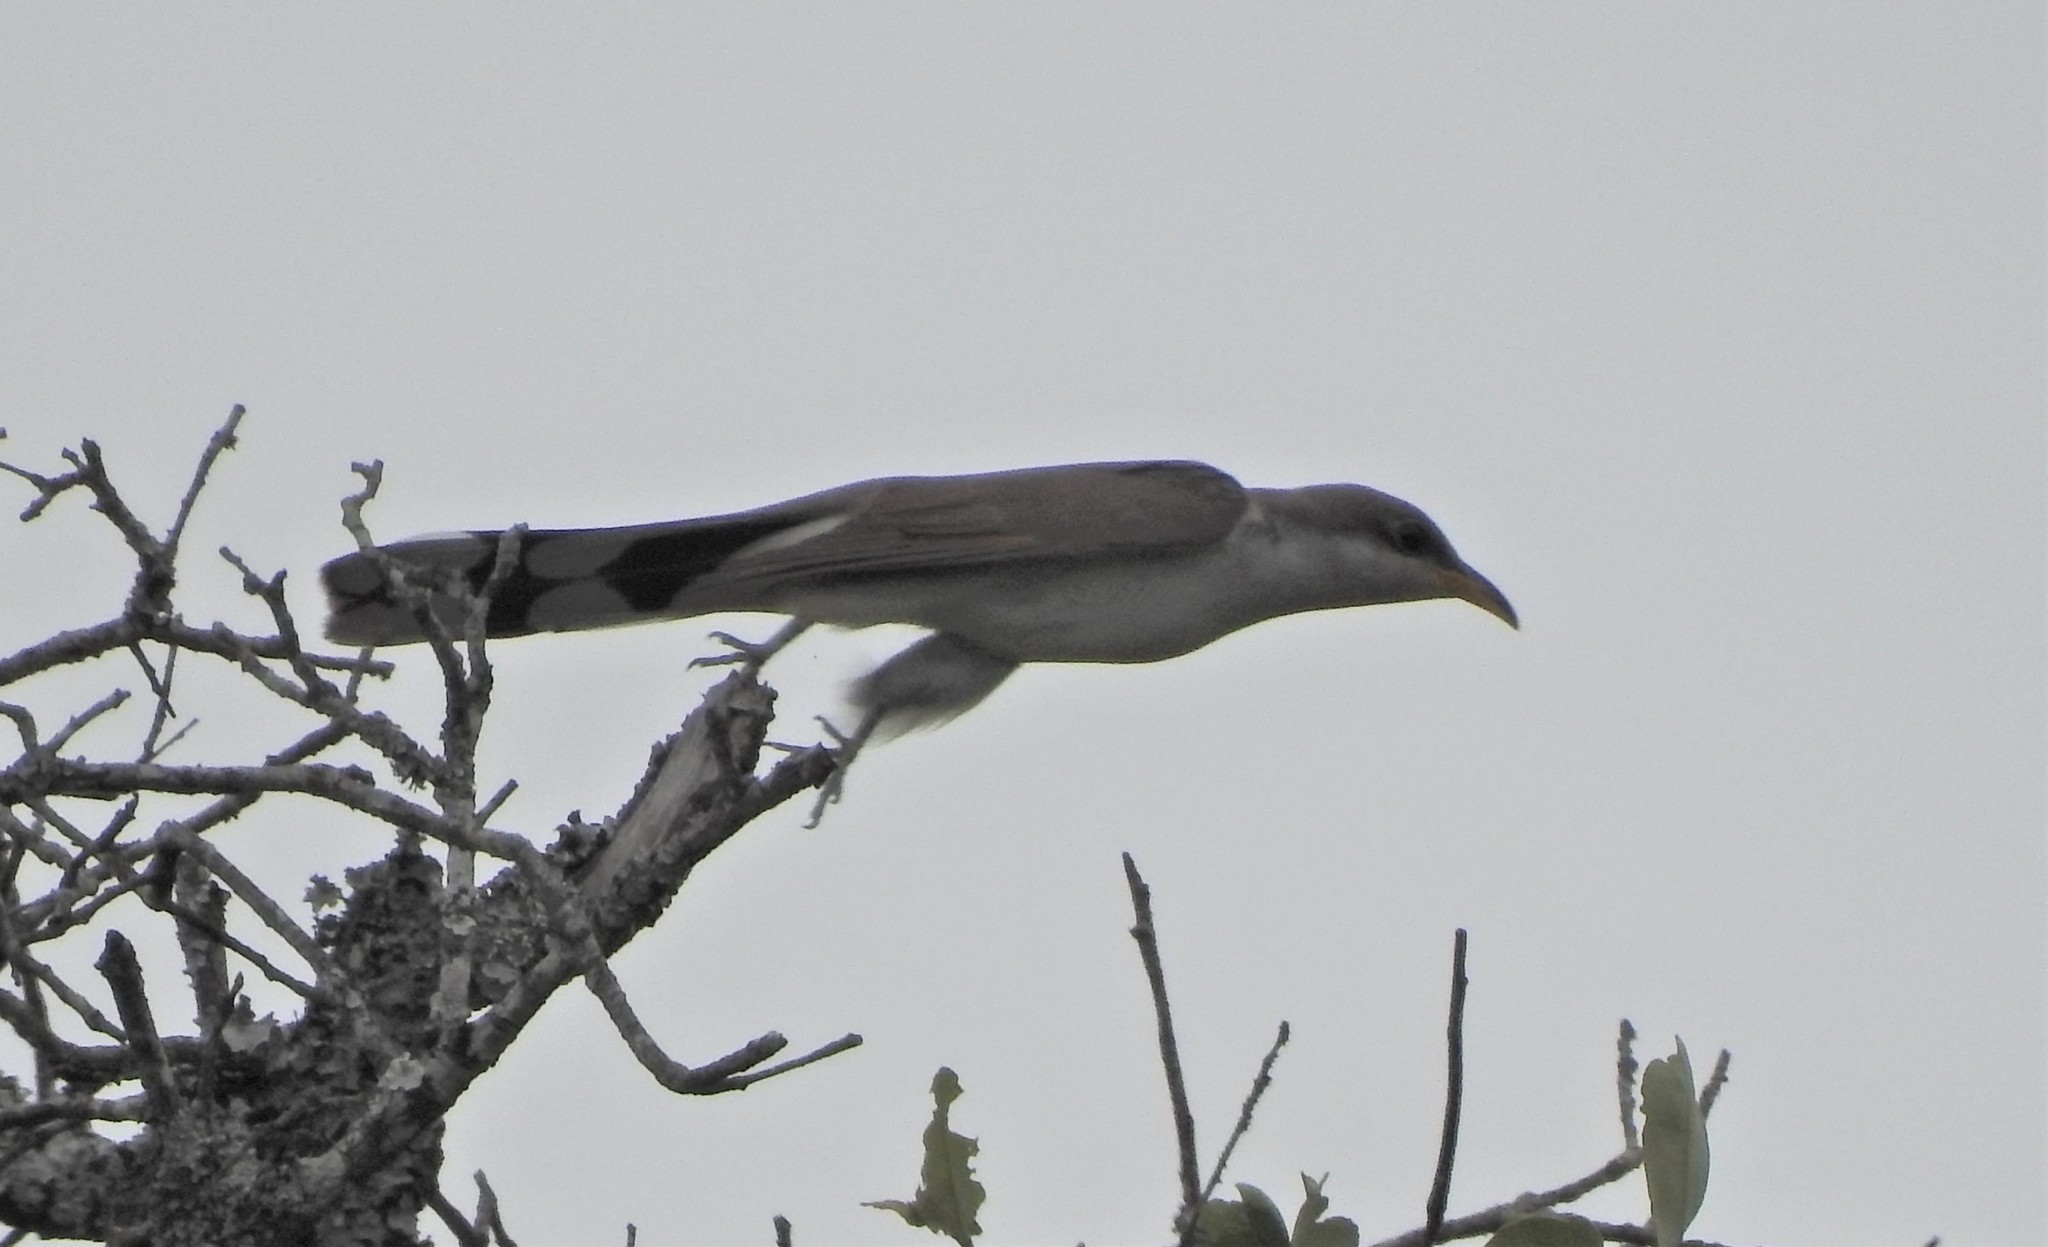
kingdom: Animalia
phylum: Chordata
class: Aves
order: Cuculiformes
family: Cuculidae
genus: Coccyzus
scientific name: Coccyzus americanus
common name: Yellow-billed cuckoo
